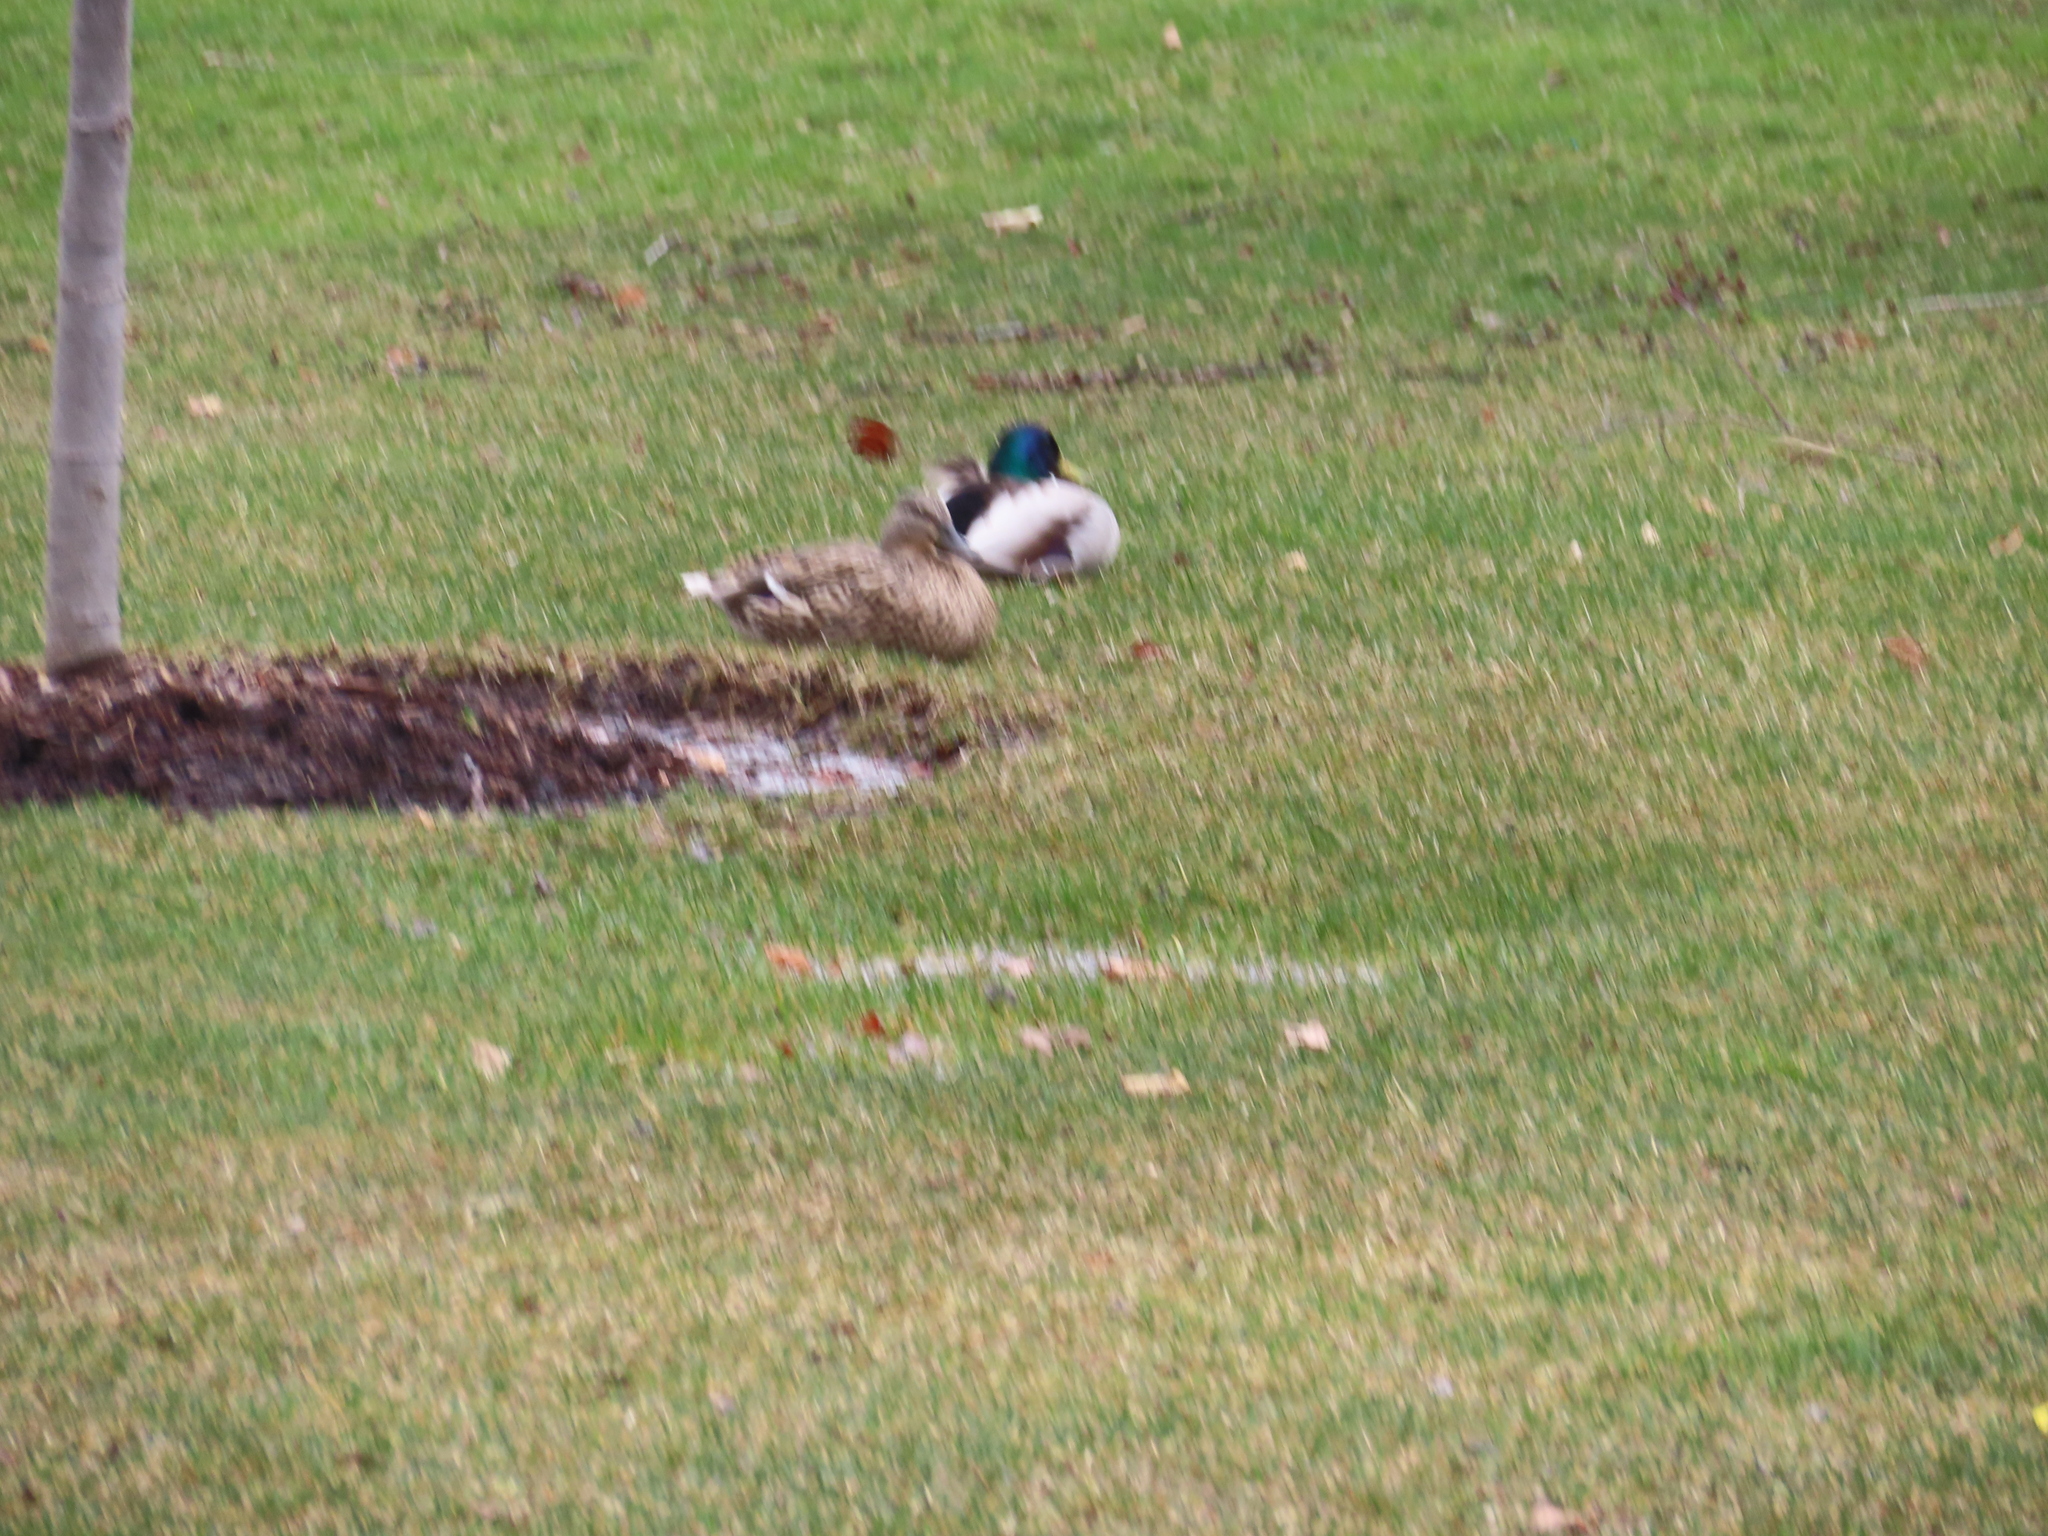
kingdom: Animalia
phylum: Chordata
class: Aves
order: Anseriformes
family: Anatidae
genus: Anas
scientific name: Anas platyrhynchos
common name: Mallard
